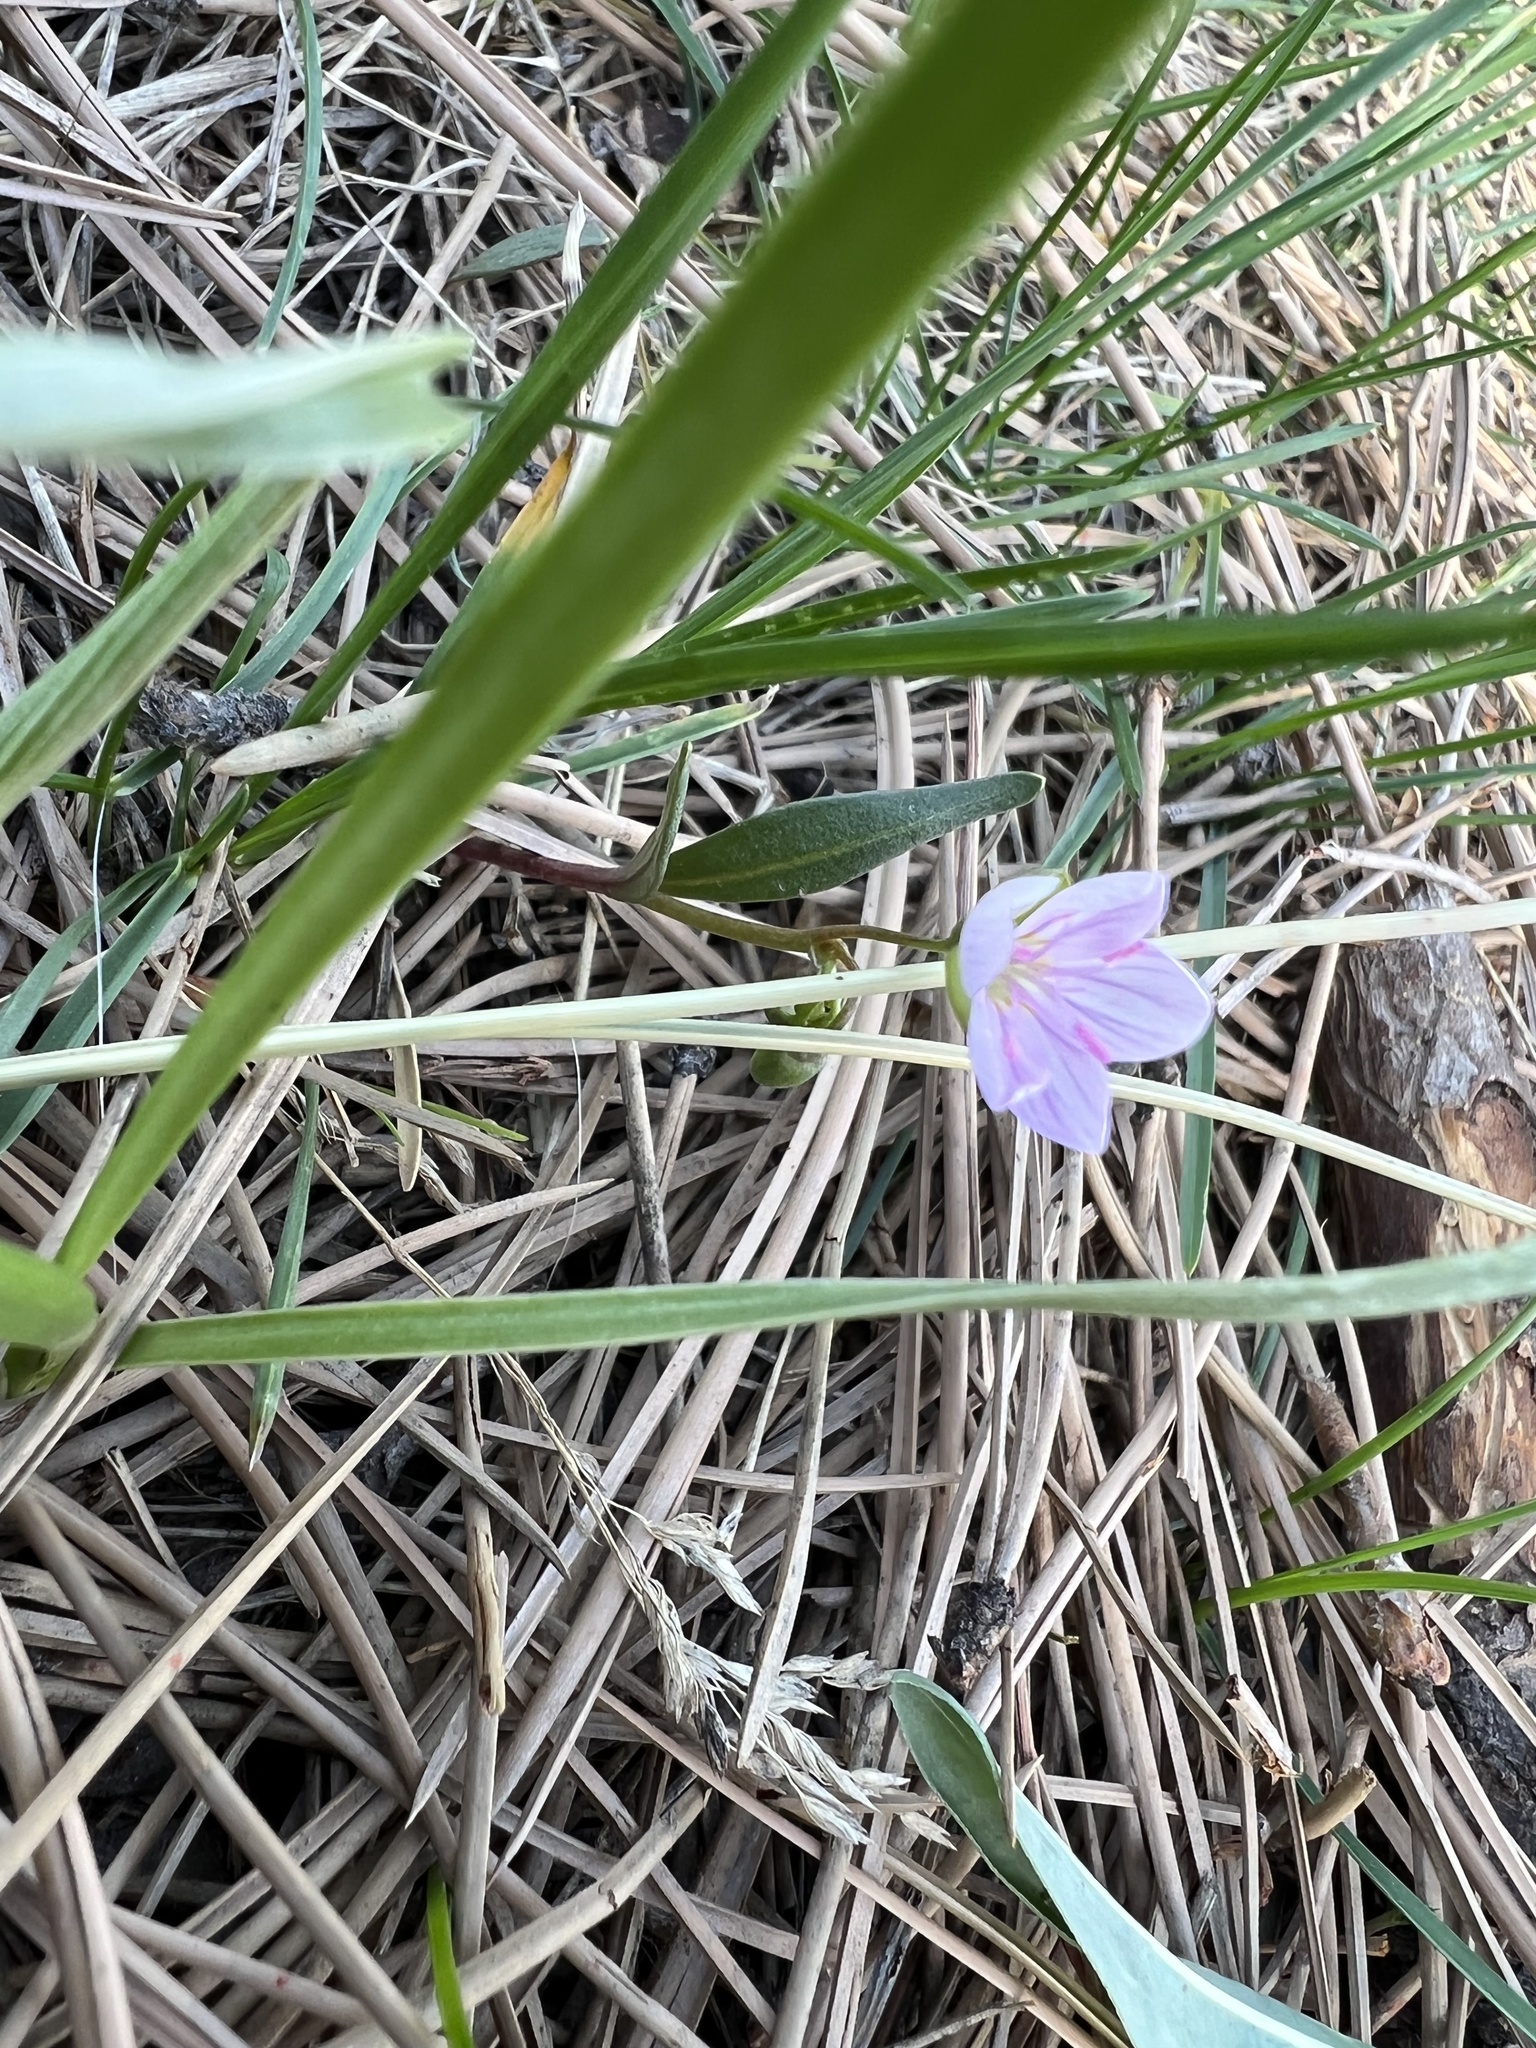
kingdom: Plantae
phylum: Tracheophyta
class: Magnoliopsida
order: Caryophyllales
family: Montiaceae
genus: Claytonia
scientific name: Claytonia rosea
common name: Rocky mountain spring-beauty
